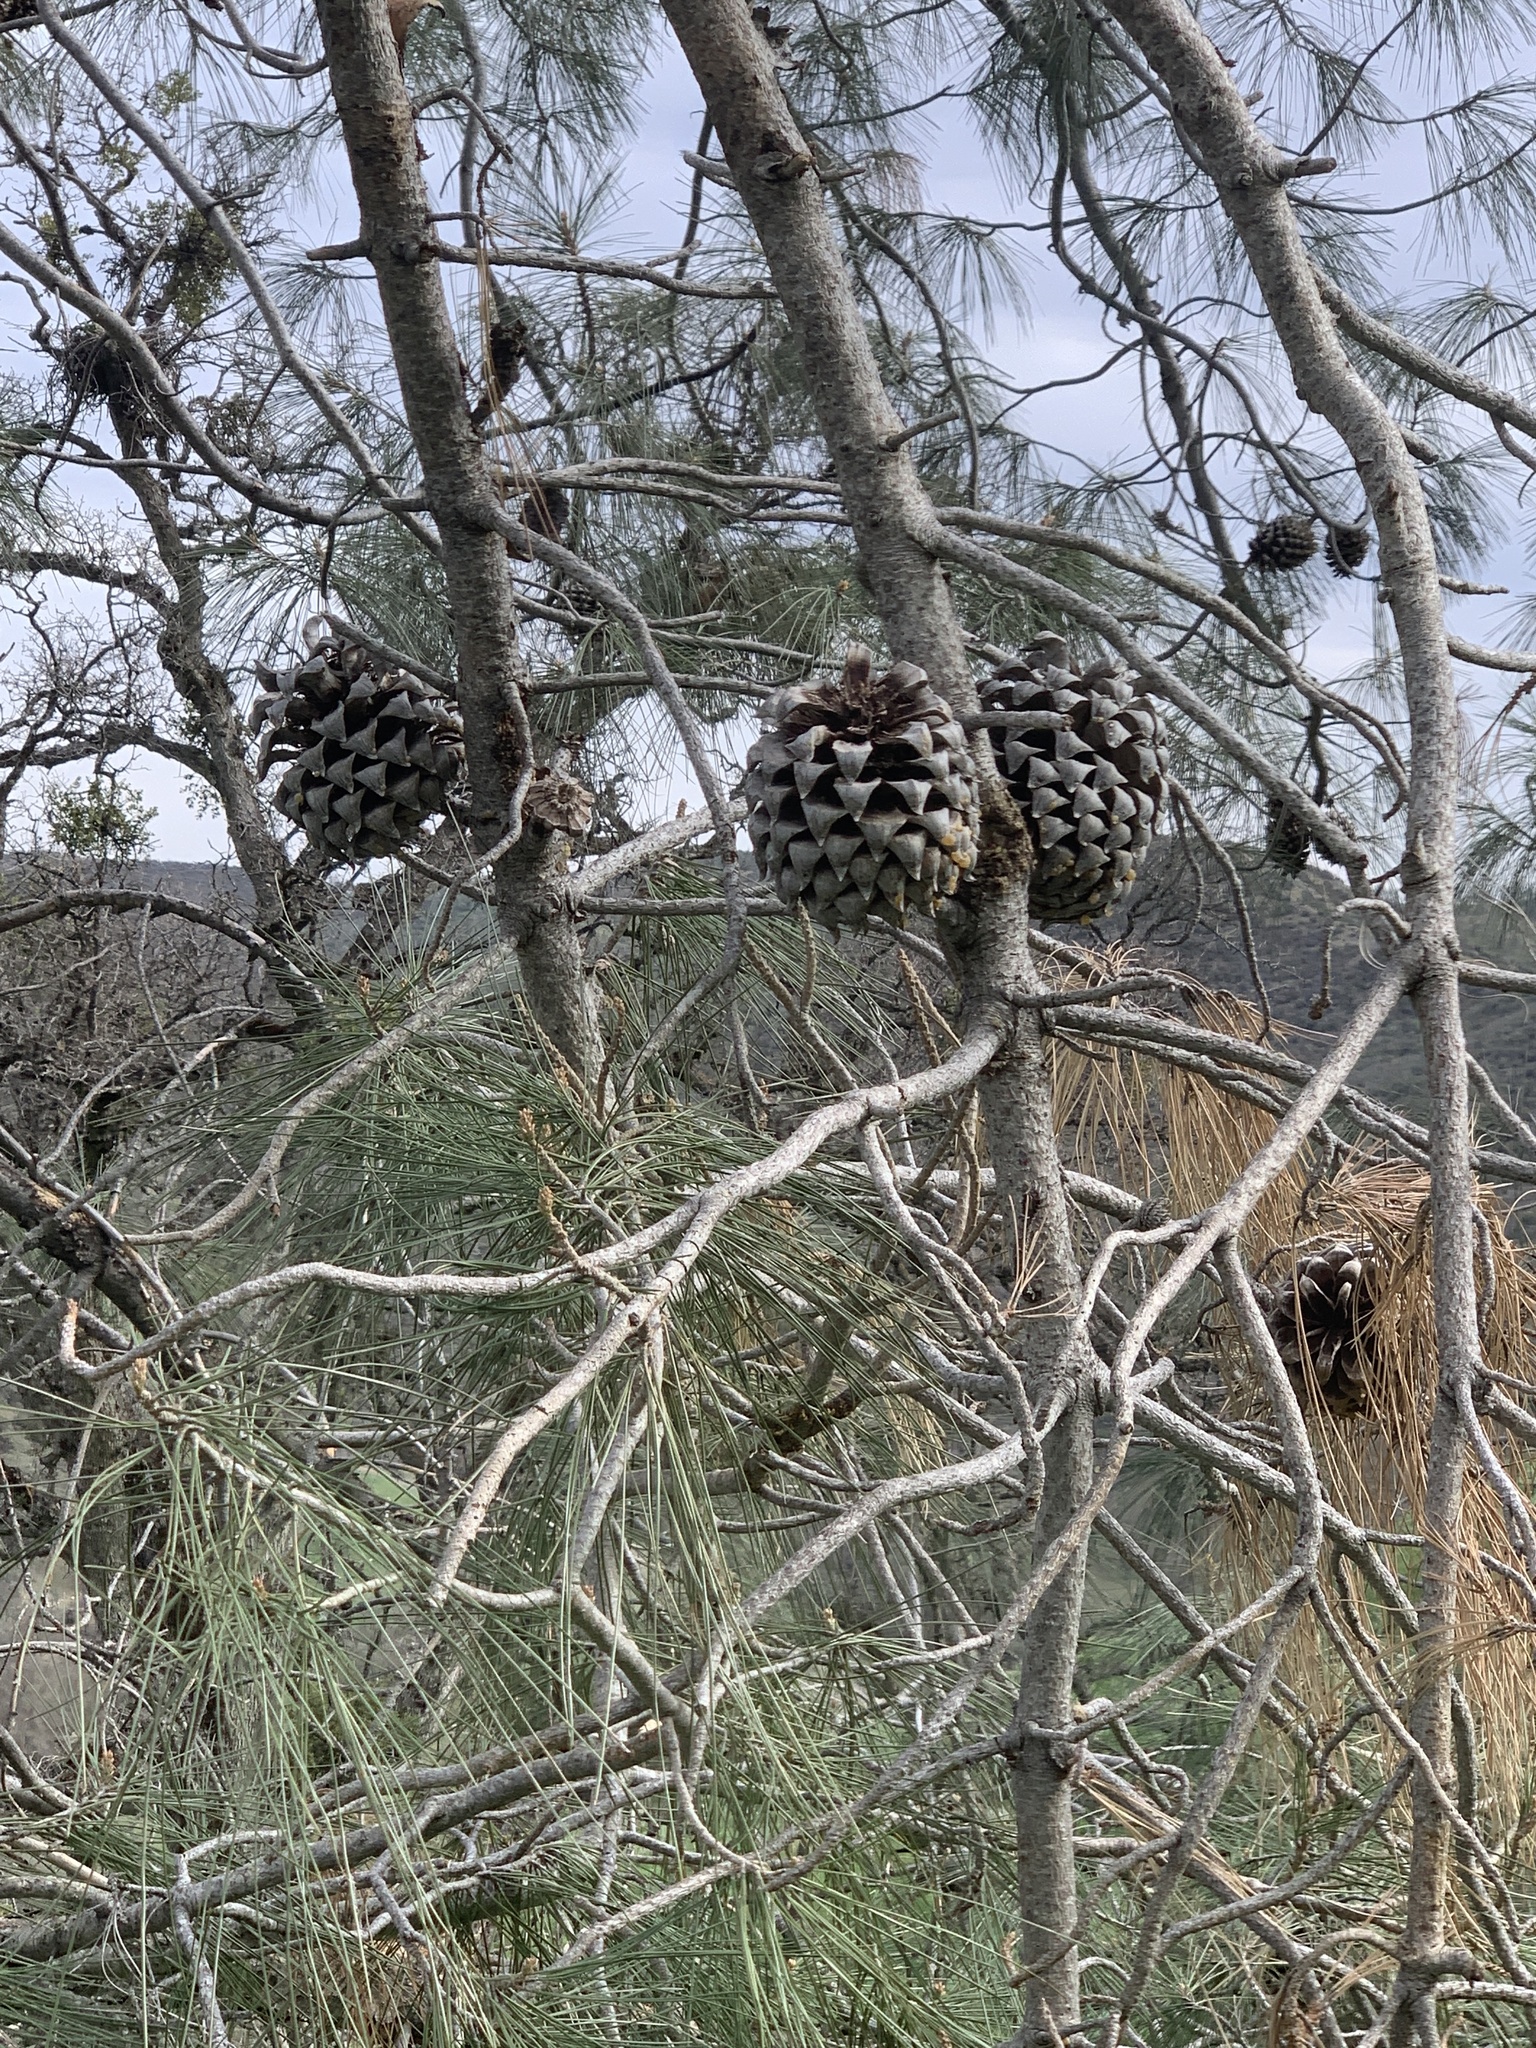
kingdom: Plantae
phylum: Tracheophyta
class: Pinopsida
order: Pinales
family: Pinaceae
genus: Pinus
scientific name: Pinus sabiniana
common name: Bull pine
